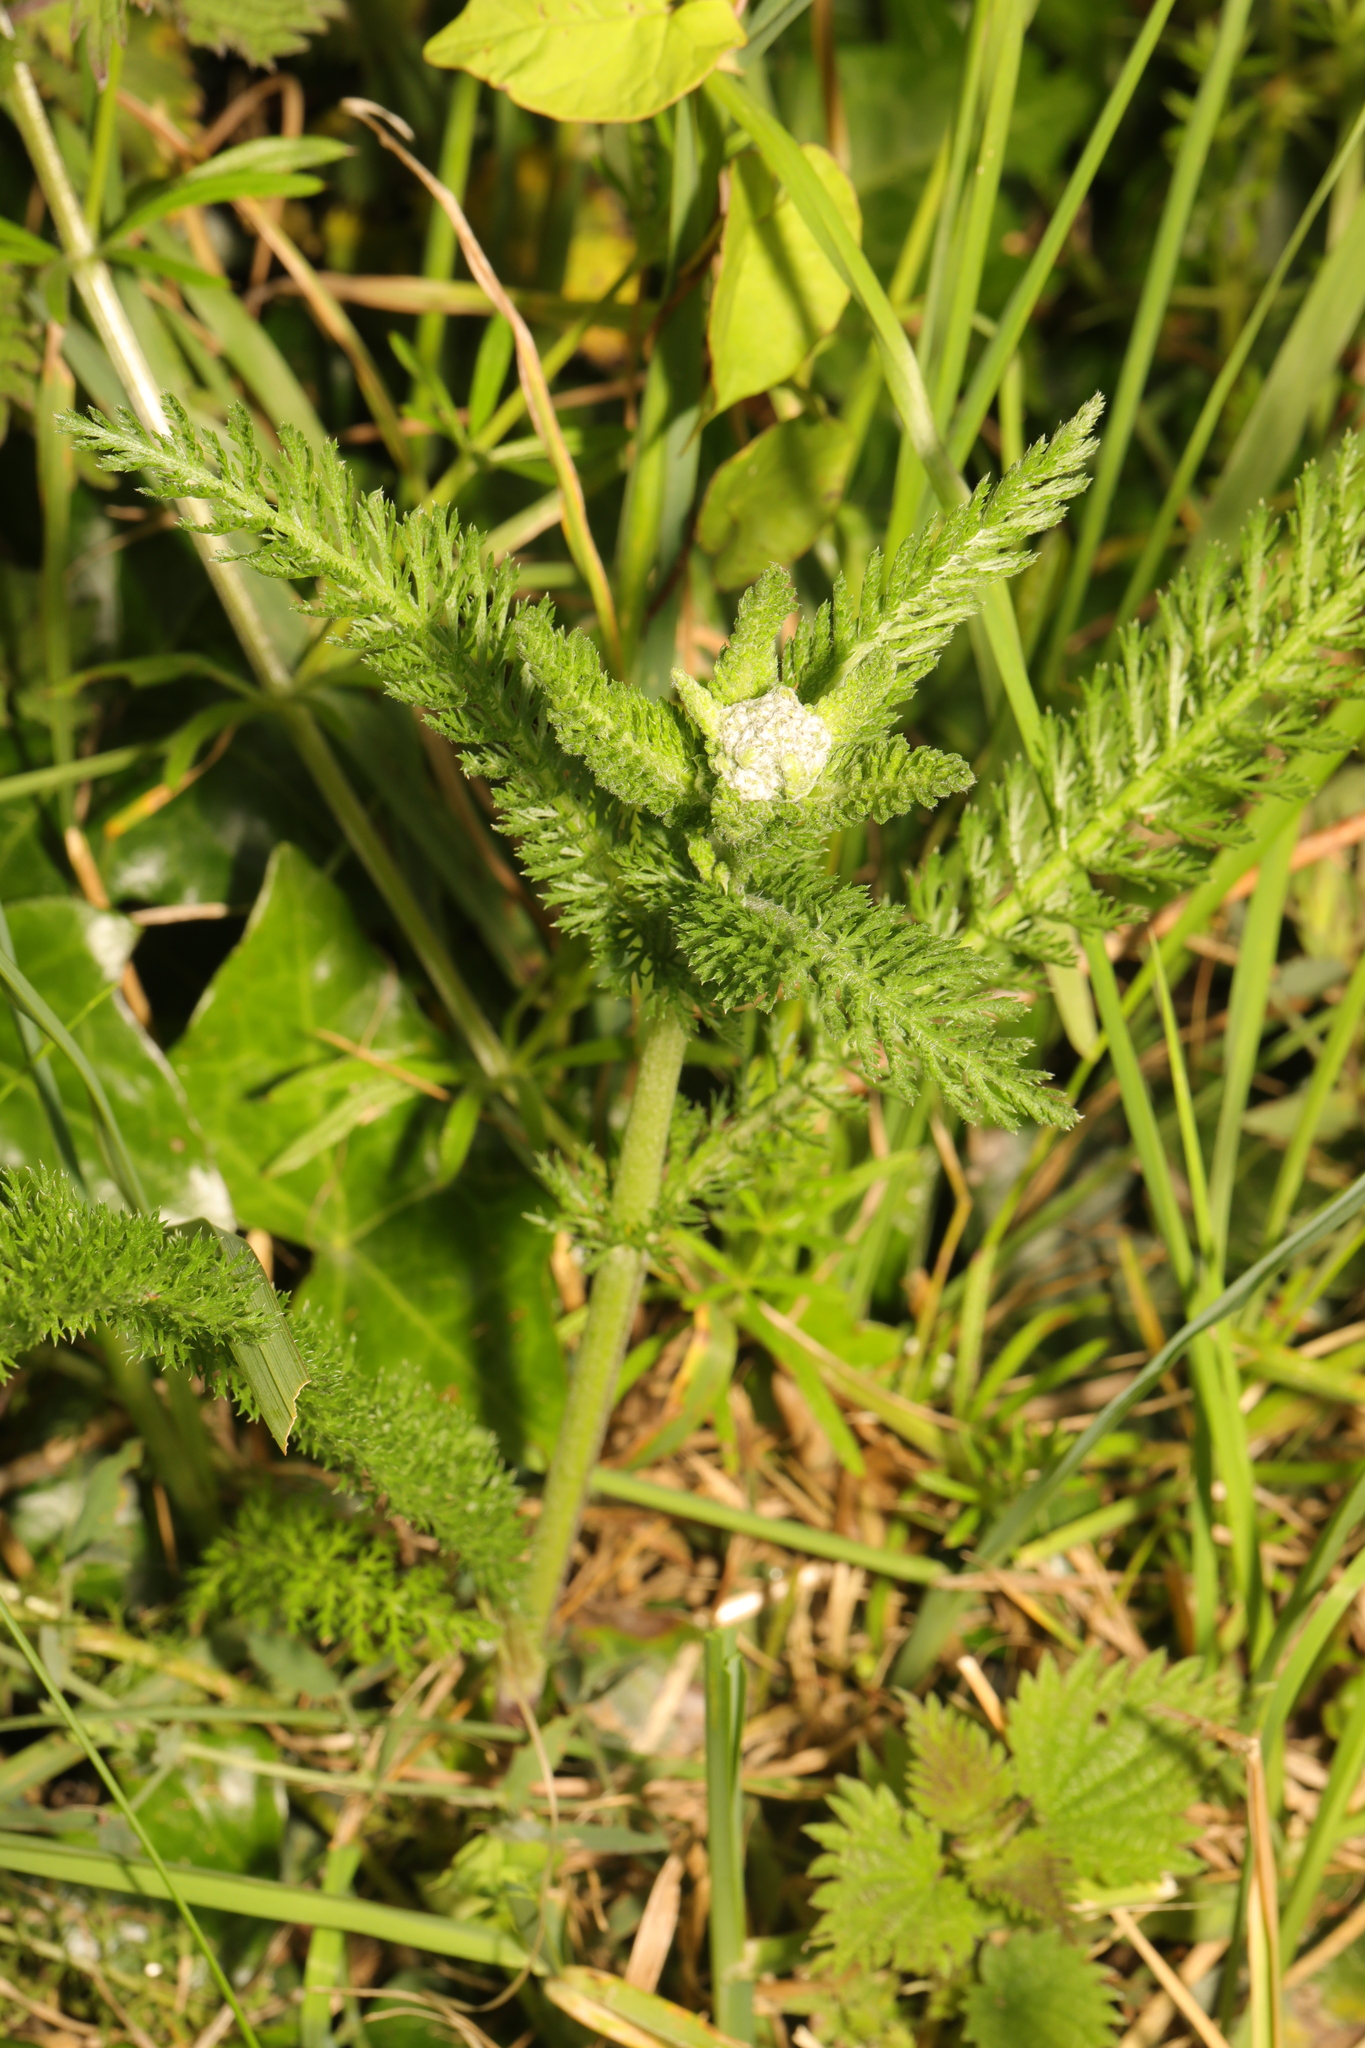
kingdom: Plantae
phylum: Tracheophyta
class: Magnoliopsida
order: Asterales
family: Asteraceae
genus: Achillea
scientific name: Achillea millefolium
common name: Yarrow
